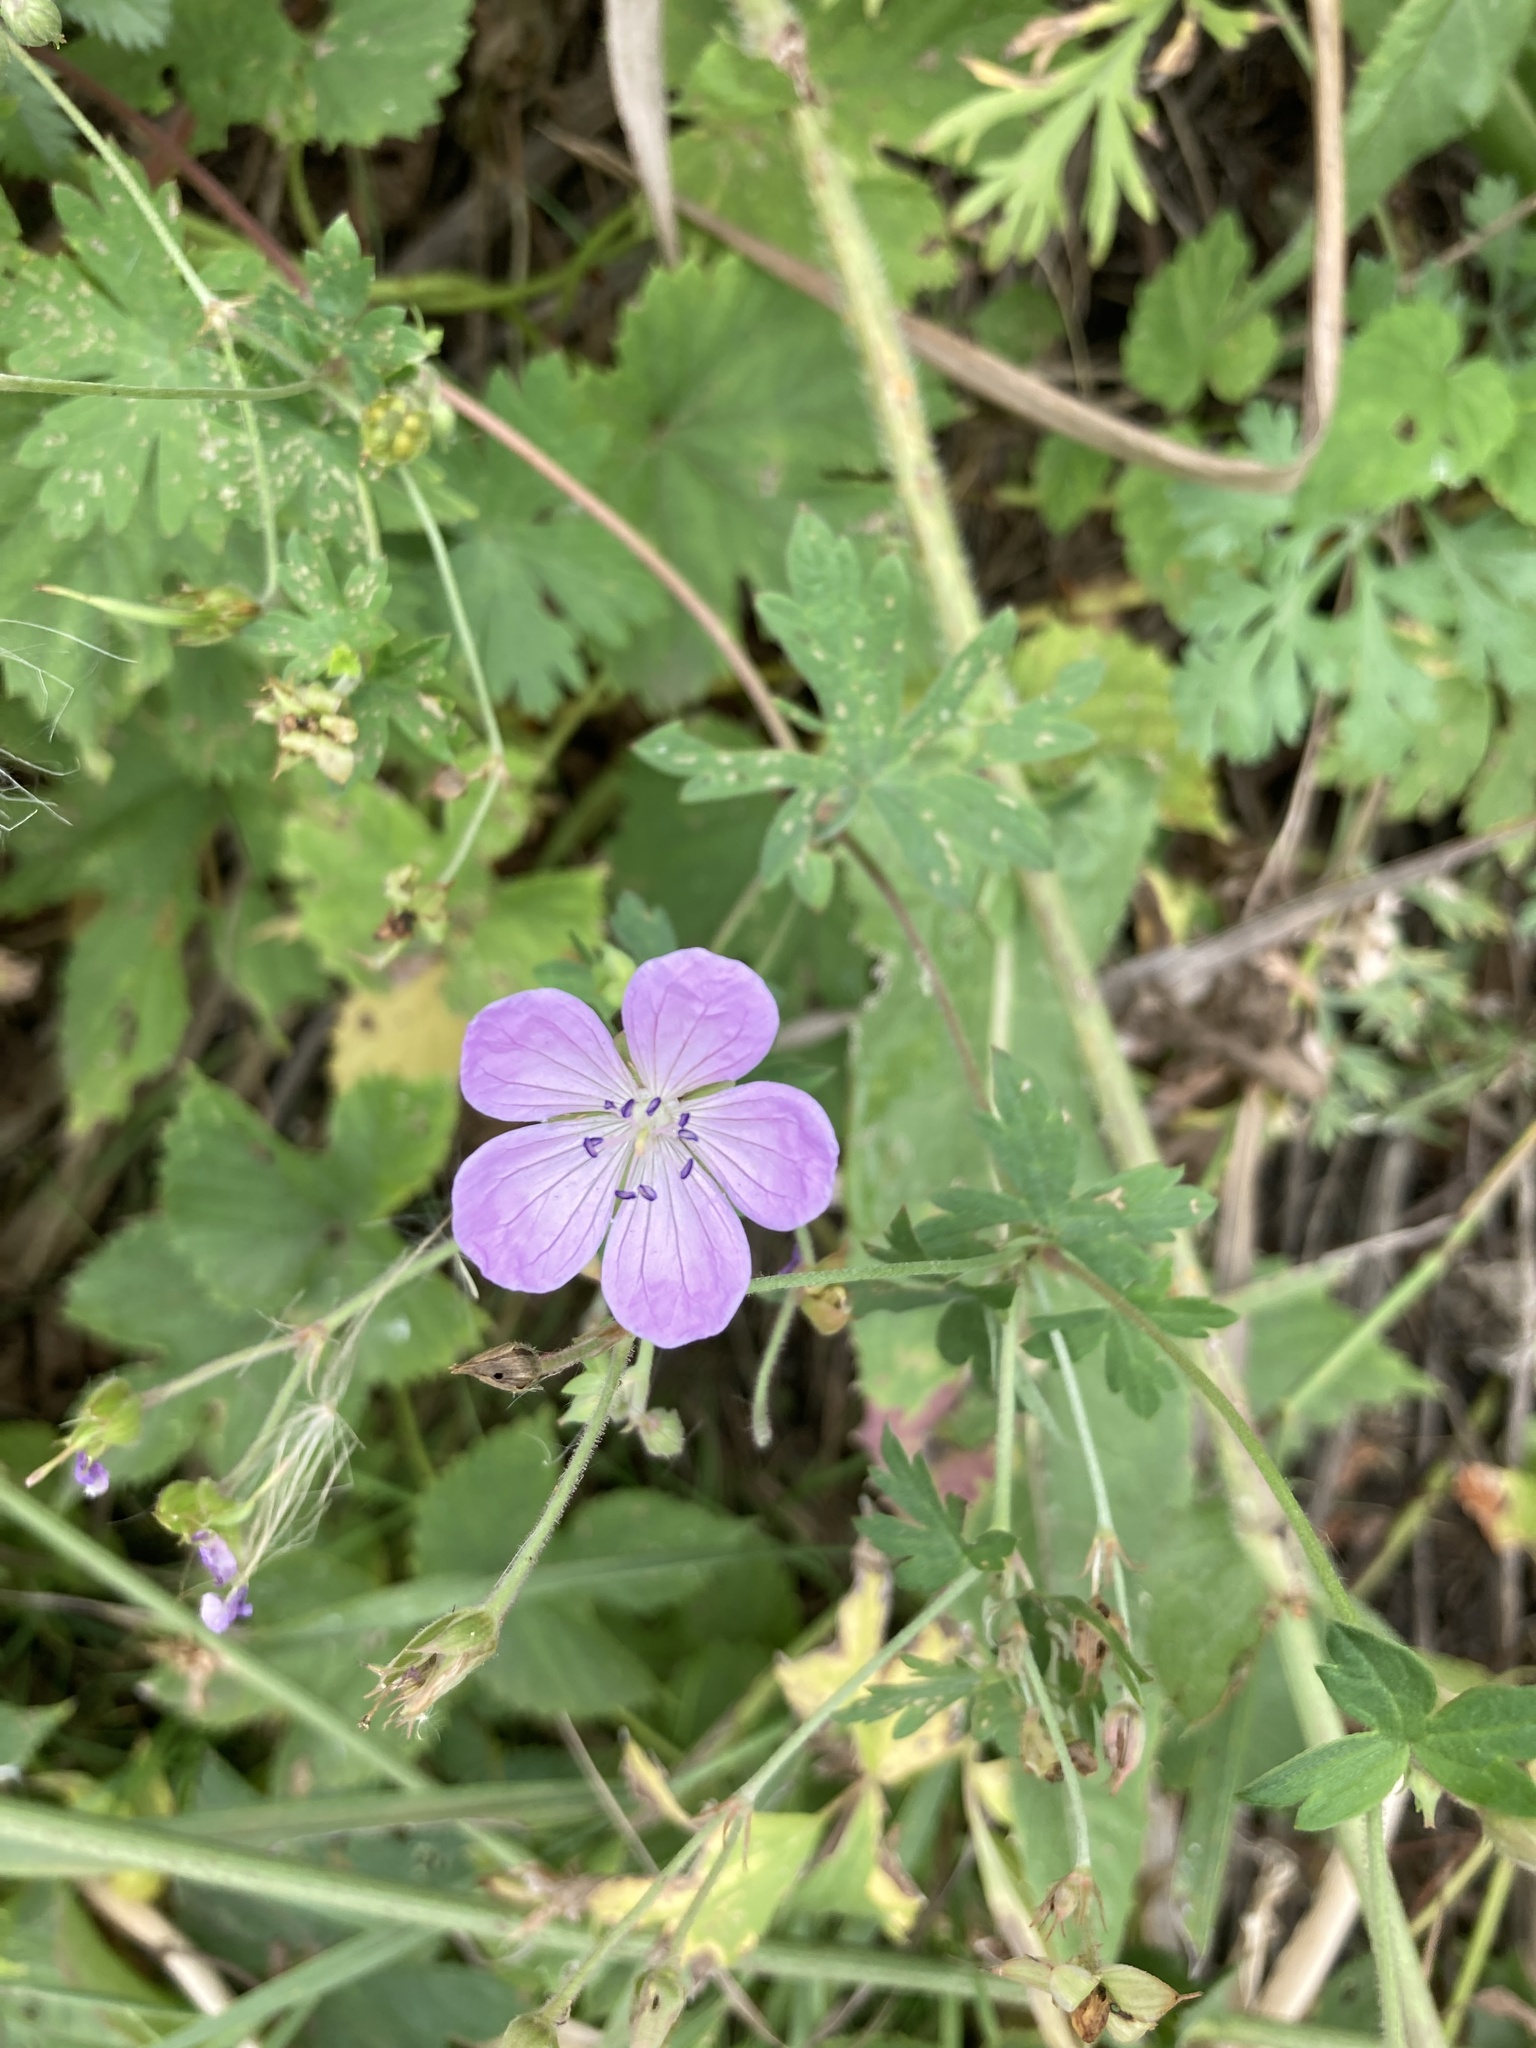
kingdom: Plantae
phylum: Tracheophyta
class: Magnoliopsida
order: Geraniales
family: Geraniaceae
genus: Geranium
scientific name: Geranium collinum
